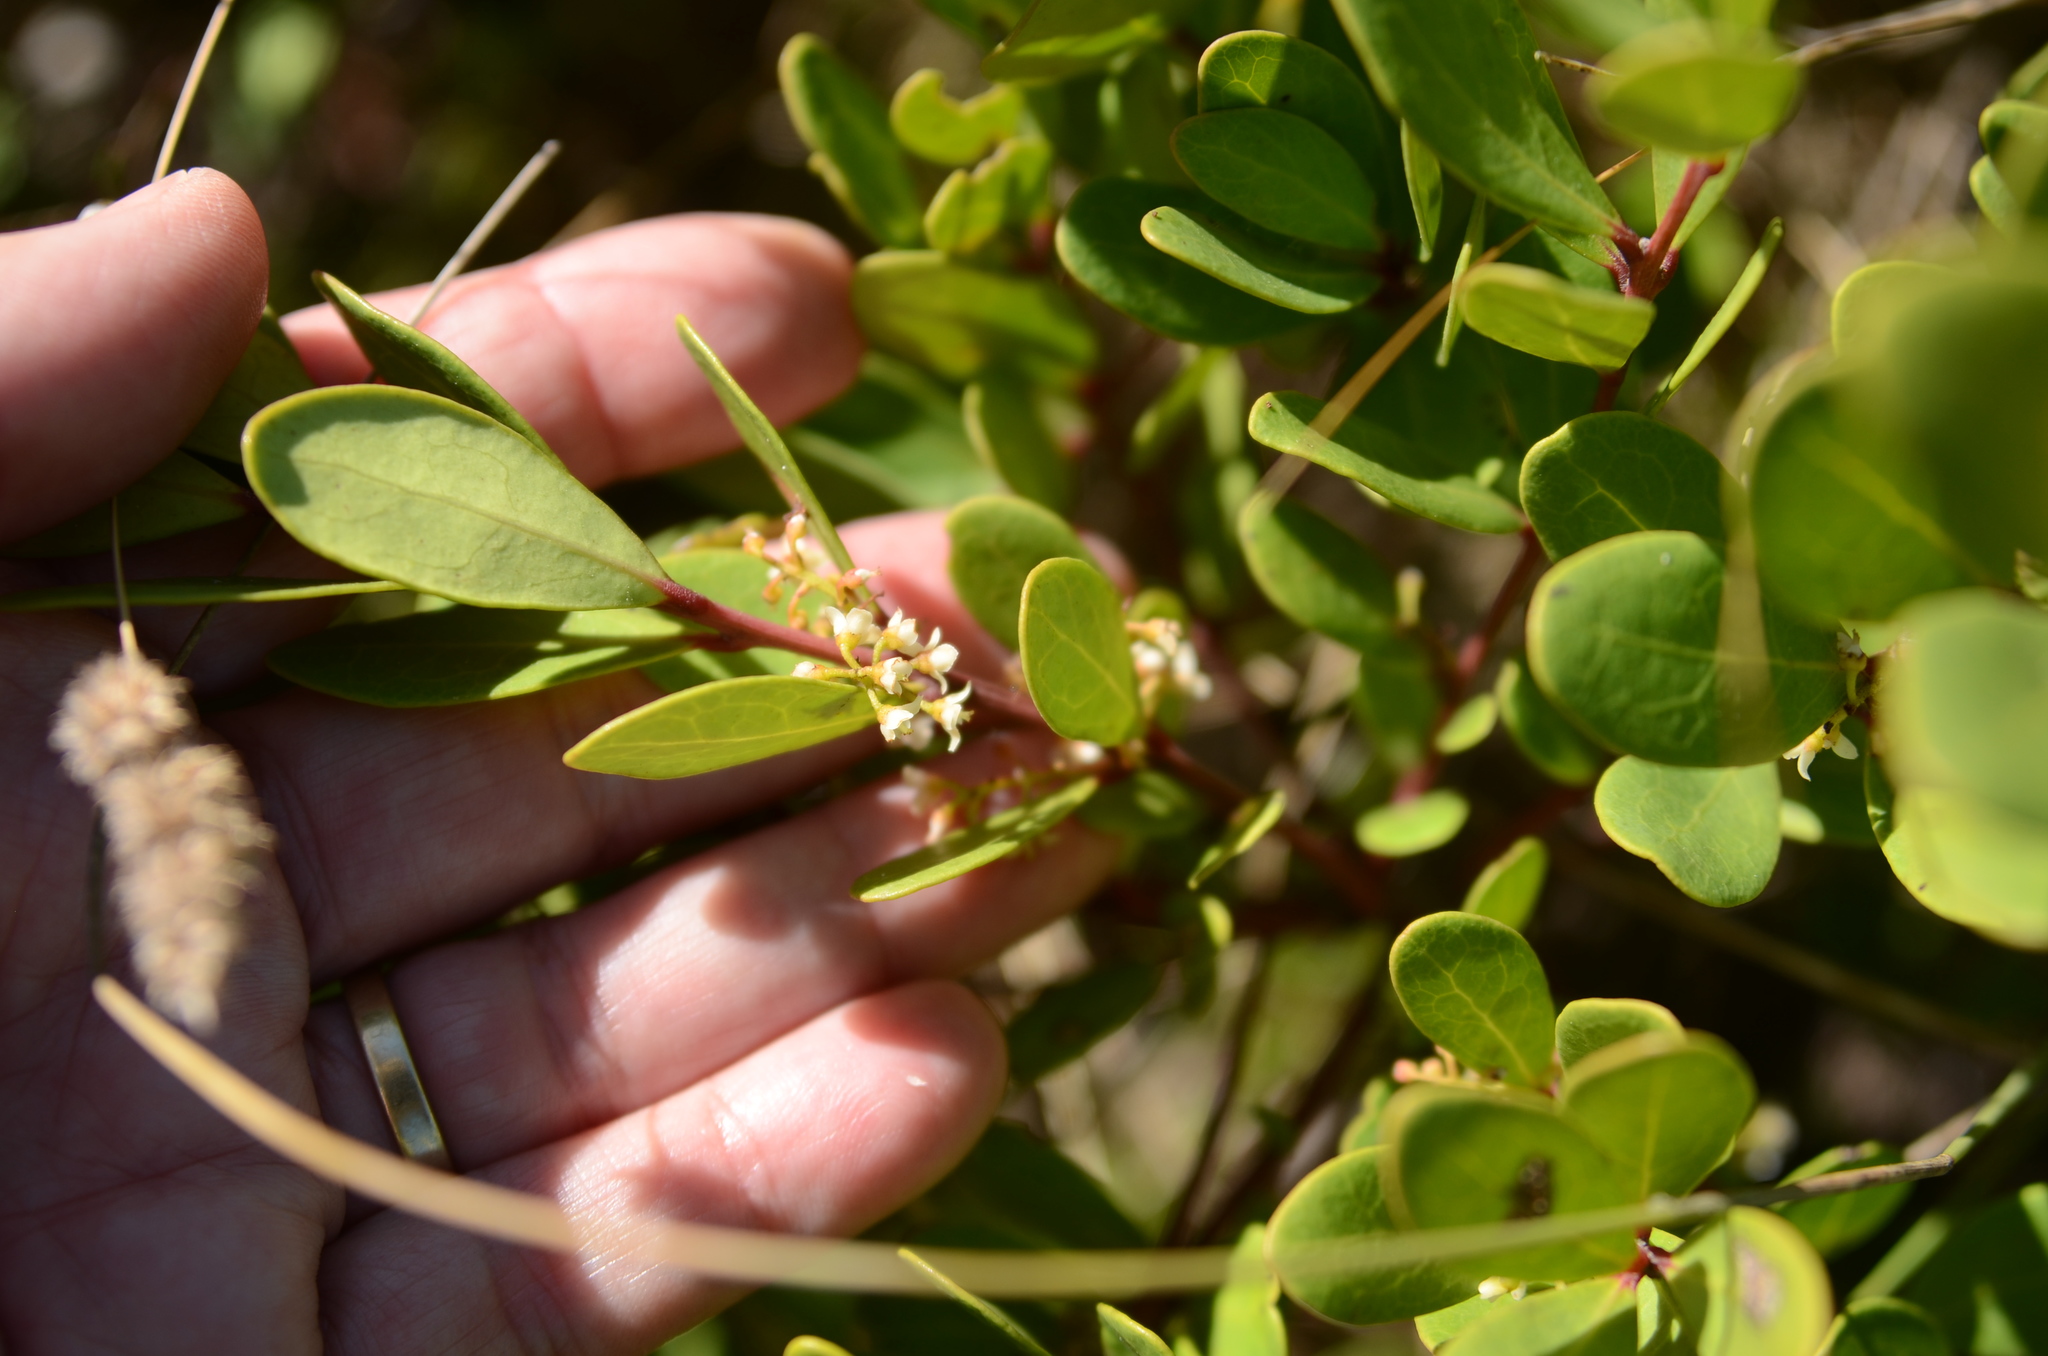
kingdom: Plantae
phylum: Tracheophyta
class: Magnoliopsida
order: Ericales
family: Ebenaceae
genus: Euclea
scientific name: Euclea racemosa
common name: Dune guarri
